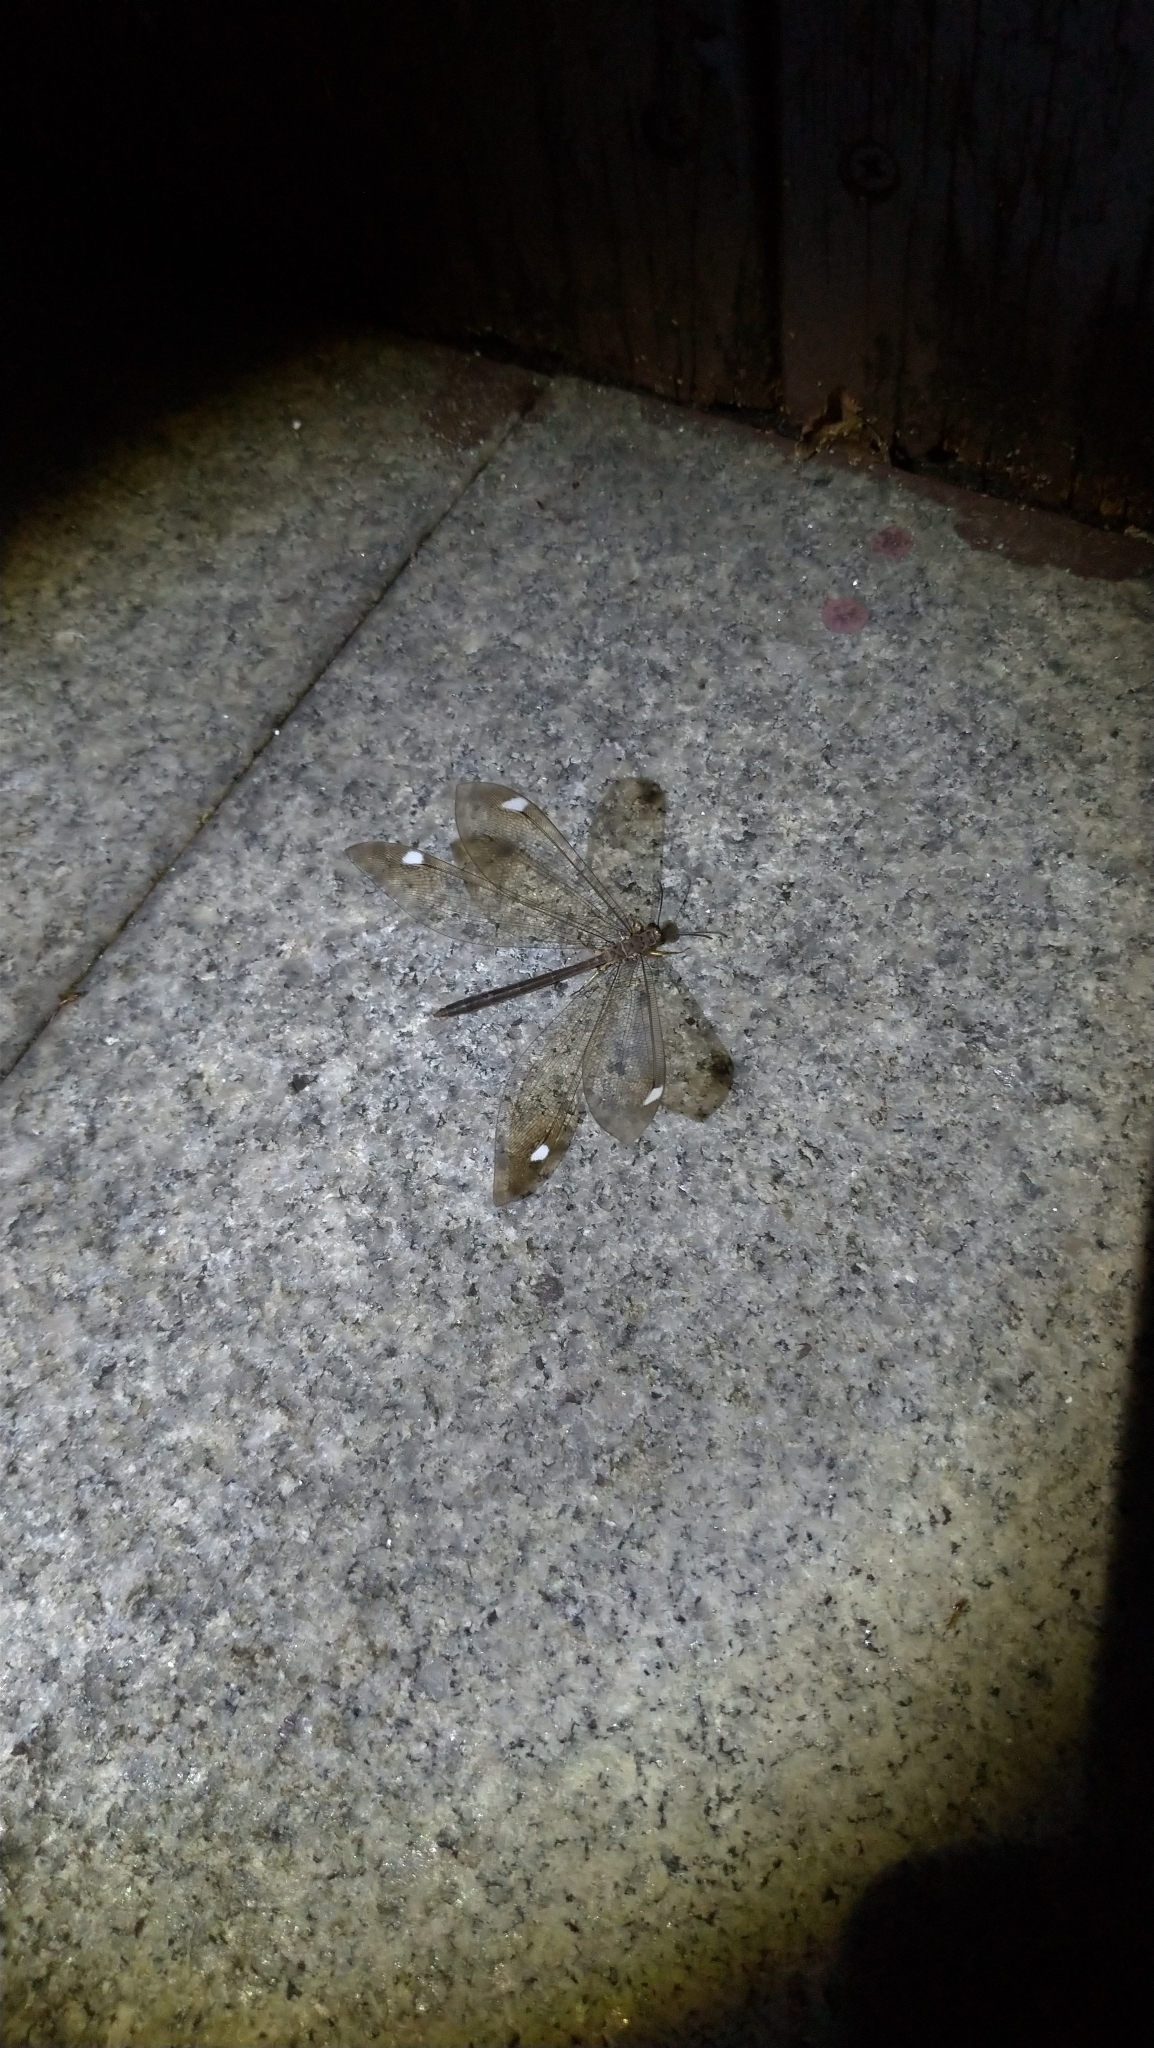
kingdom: Animalia
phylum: Arthropoda
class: Insecta
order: Neuroptera
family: Myrmeleontidae
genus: Baliga
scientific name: Baliga asakurae
